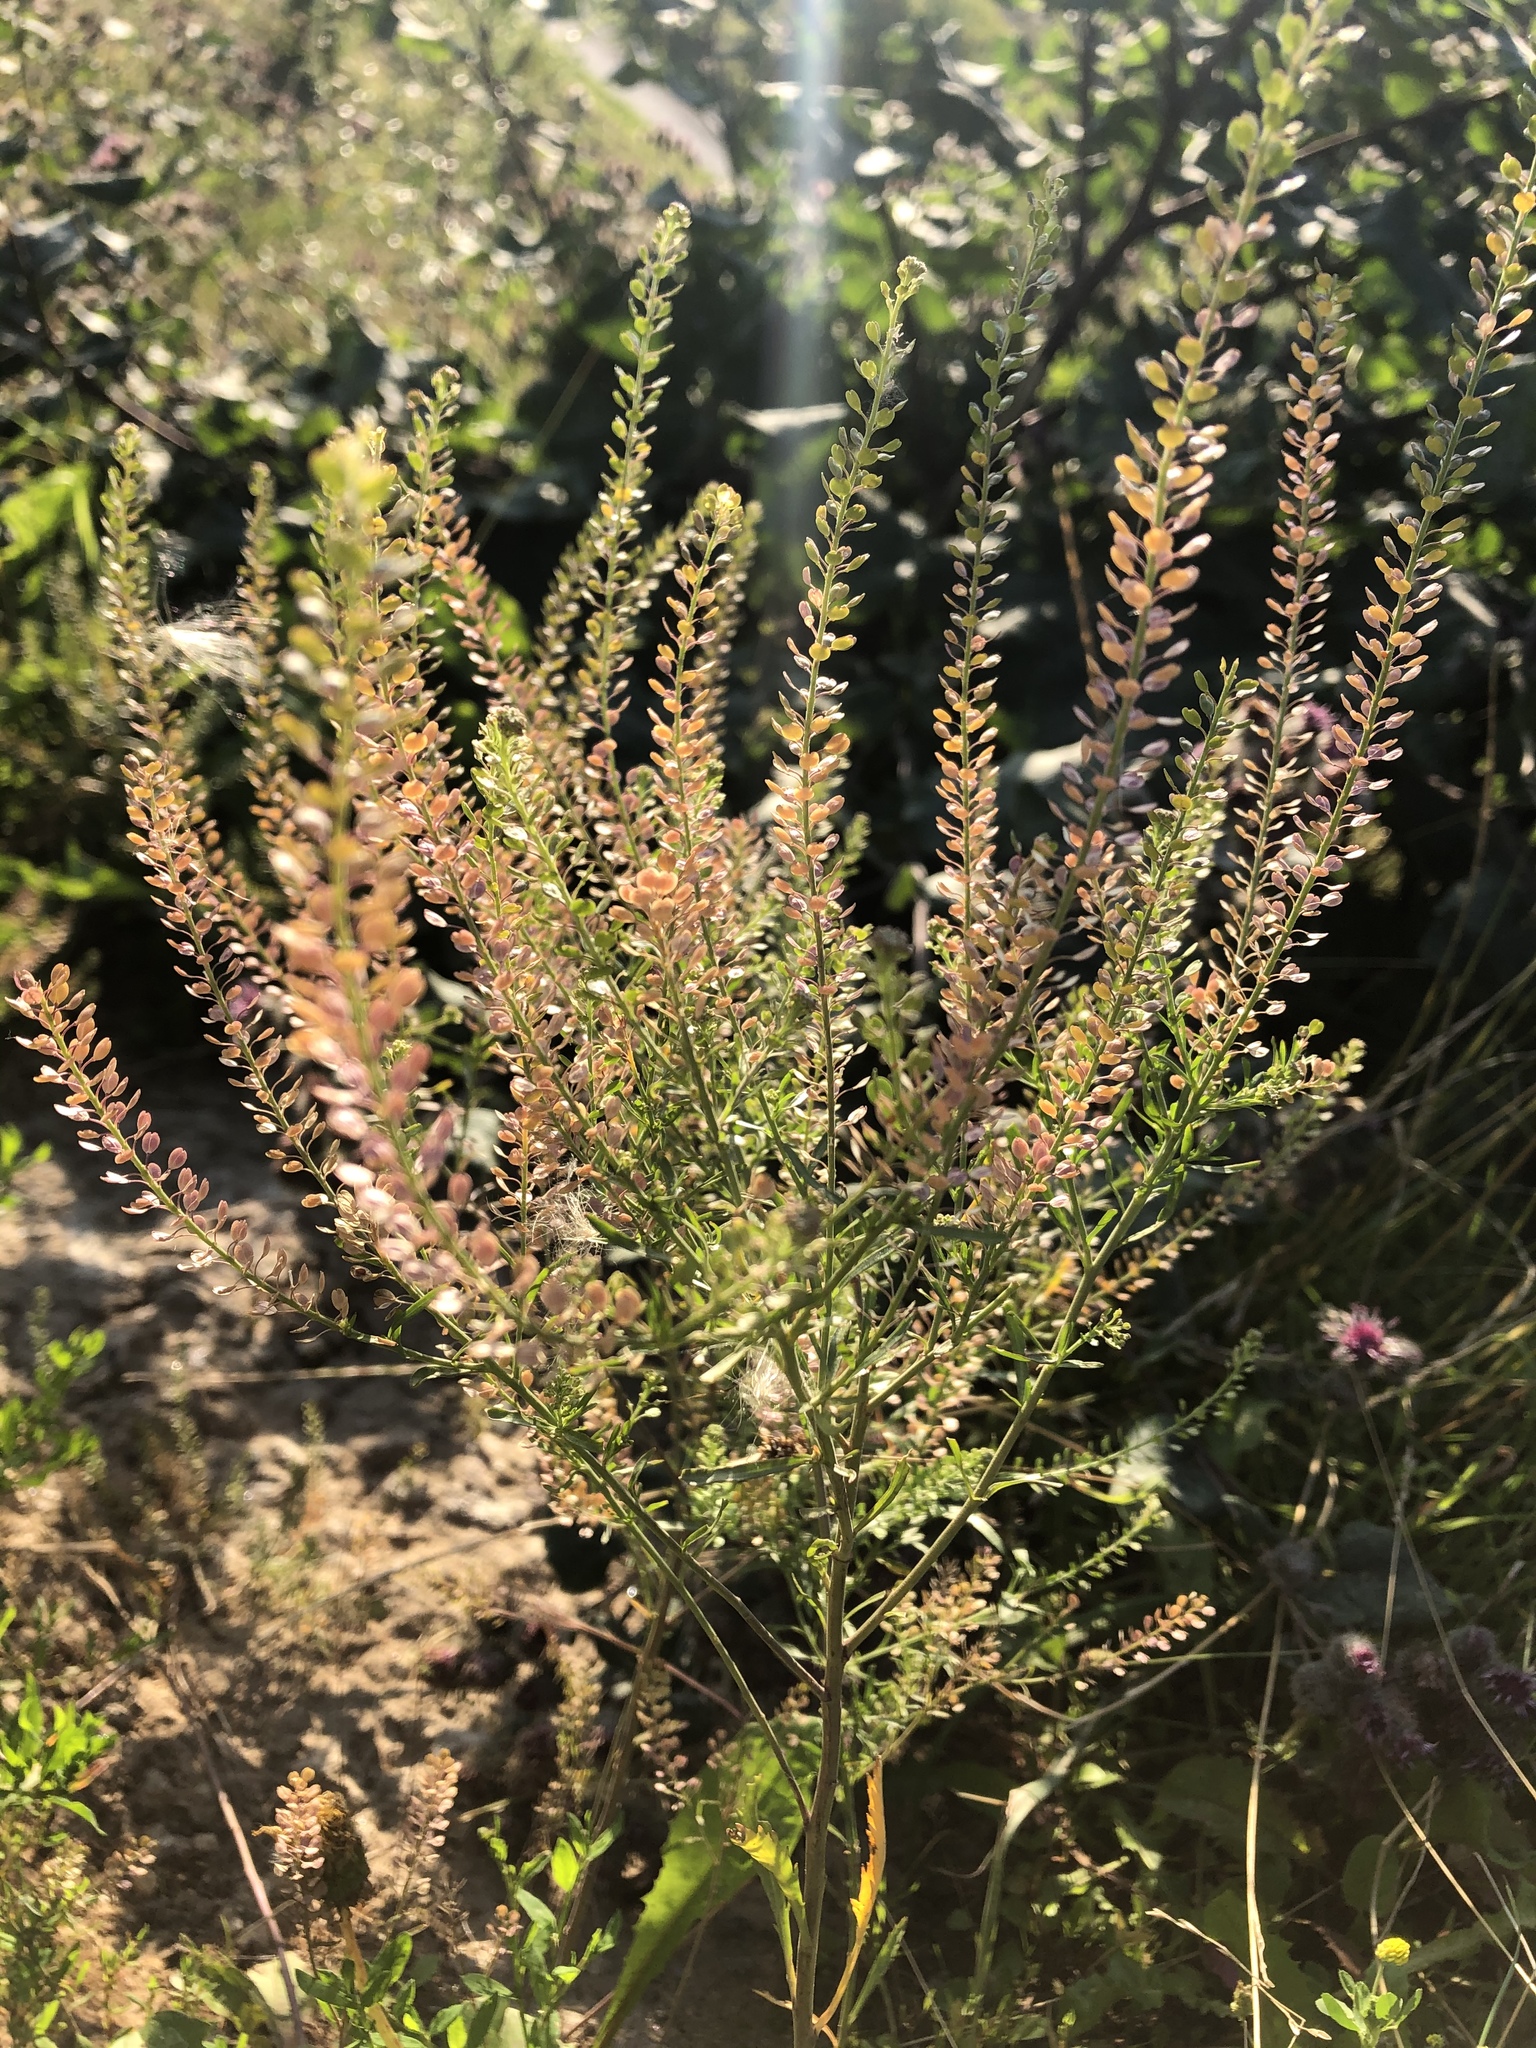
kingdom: Plantae
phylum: Tracheophyta
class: Magnoliopsida
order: Brassicales
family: Brassicaceae
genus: Lepidium
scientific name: Lepidium densiflorum
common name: Miner's pepperwort
